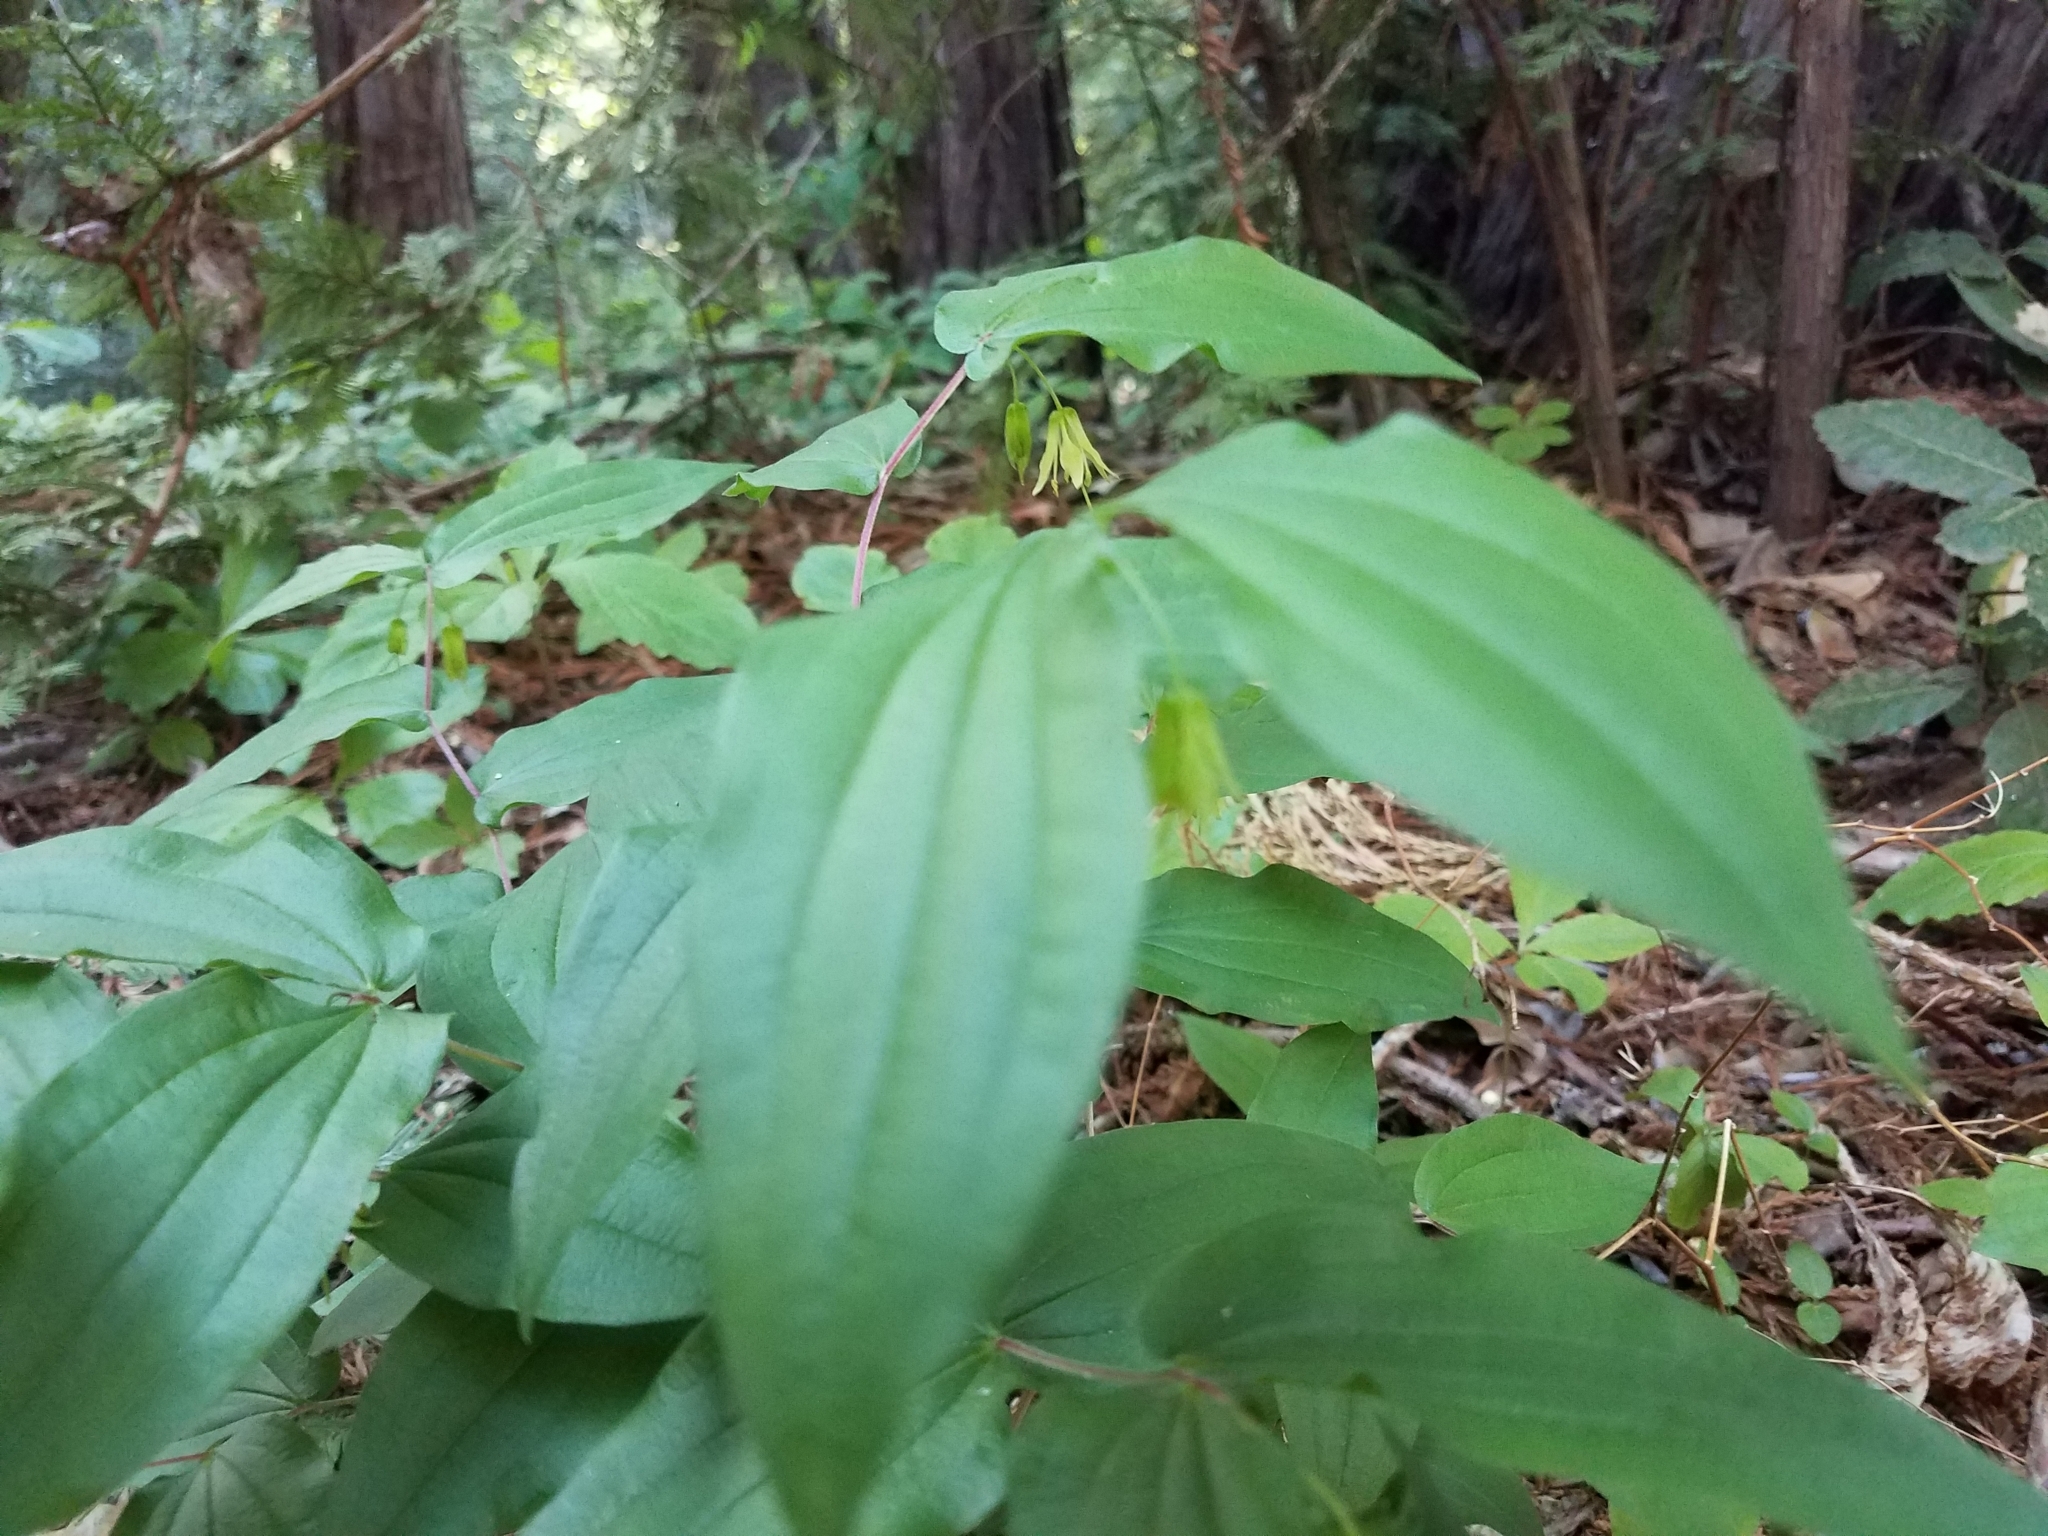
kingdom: Plantae
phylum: Tracheophyta
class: Liliopsida
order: Liliales
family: Liliaceae
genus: Prosartes
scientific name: Prosartes hookeri
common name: Fairy-bells
